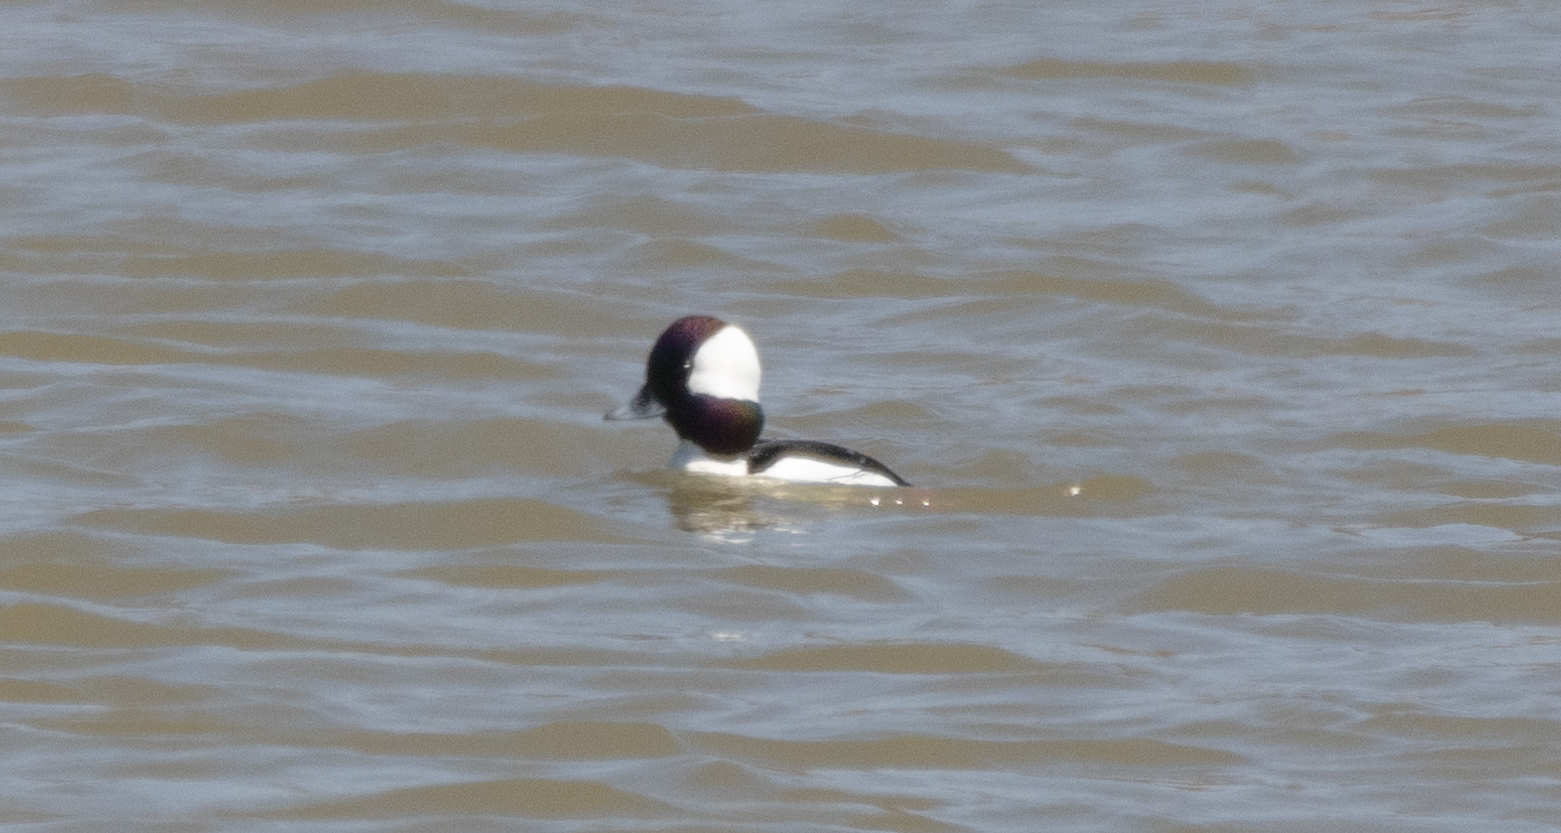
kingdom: Animalia
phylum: Chordata
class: Aves
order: Anseriformes
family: Anatidae
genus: Bucephala
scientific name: Bucephala albeola
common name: Bufflehead
